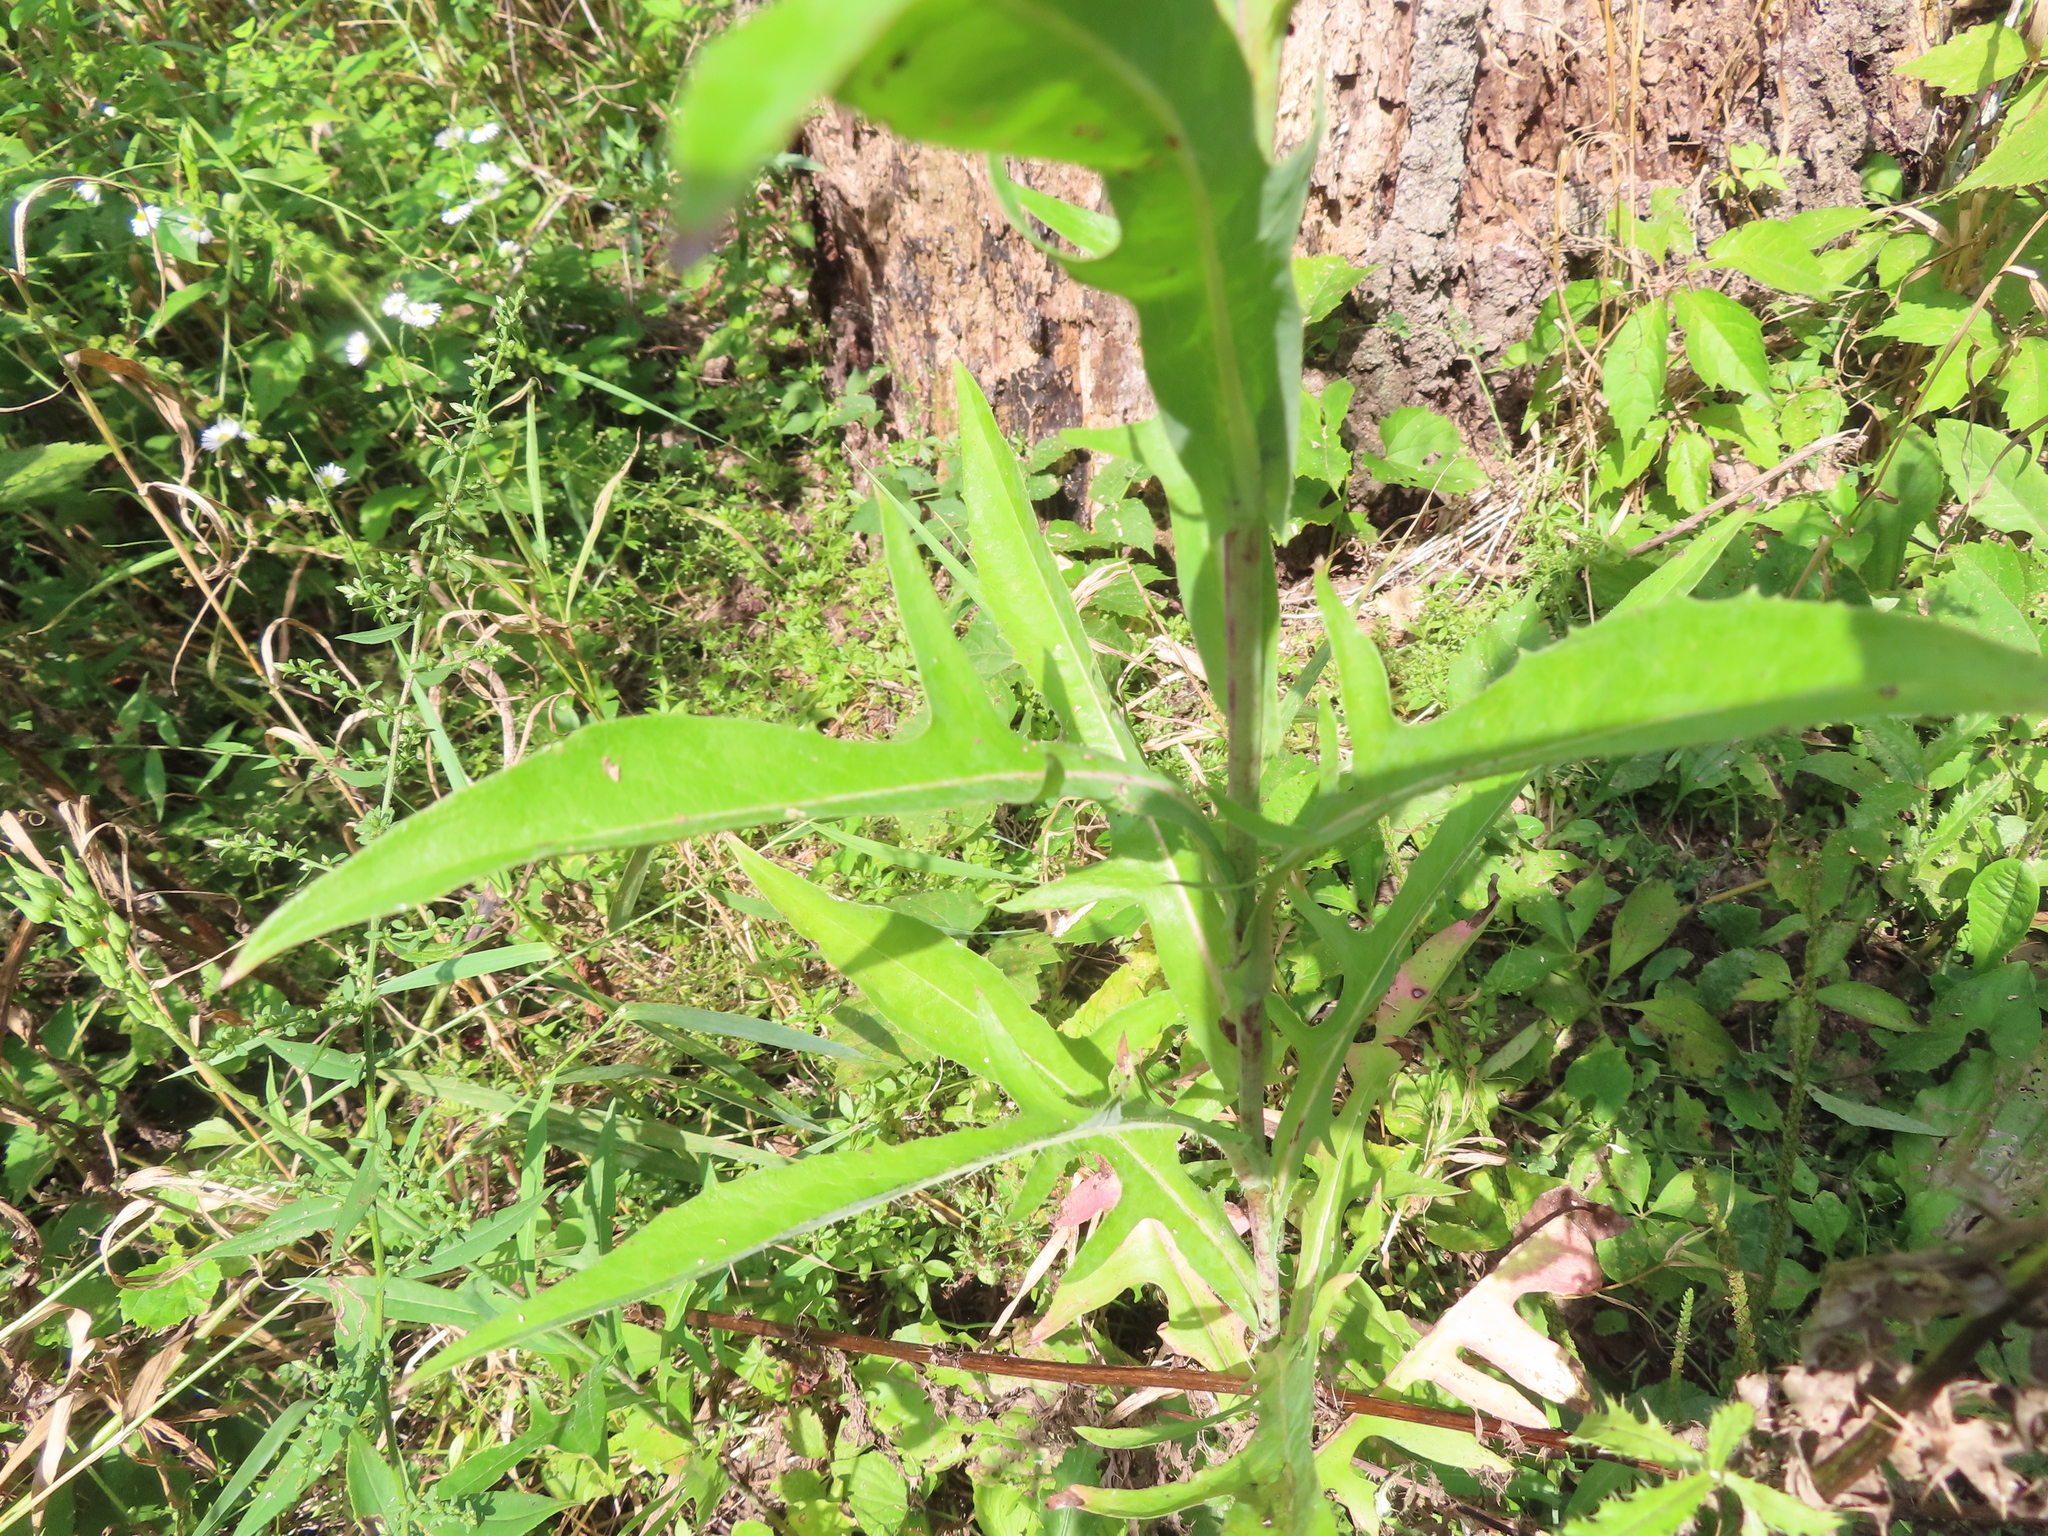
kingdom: Plantae
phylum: Tracheophyta
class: Magnoliopsida
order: Asterales
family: Asteraceae
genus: Lactuca
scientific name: Lactuca canadensis
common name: Canada lettuce
